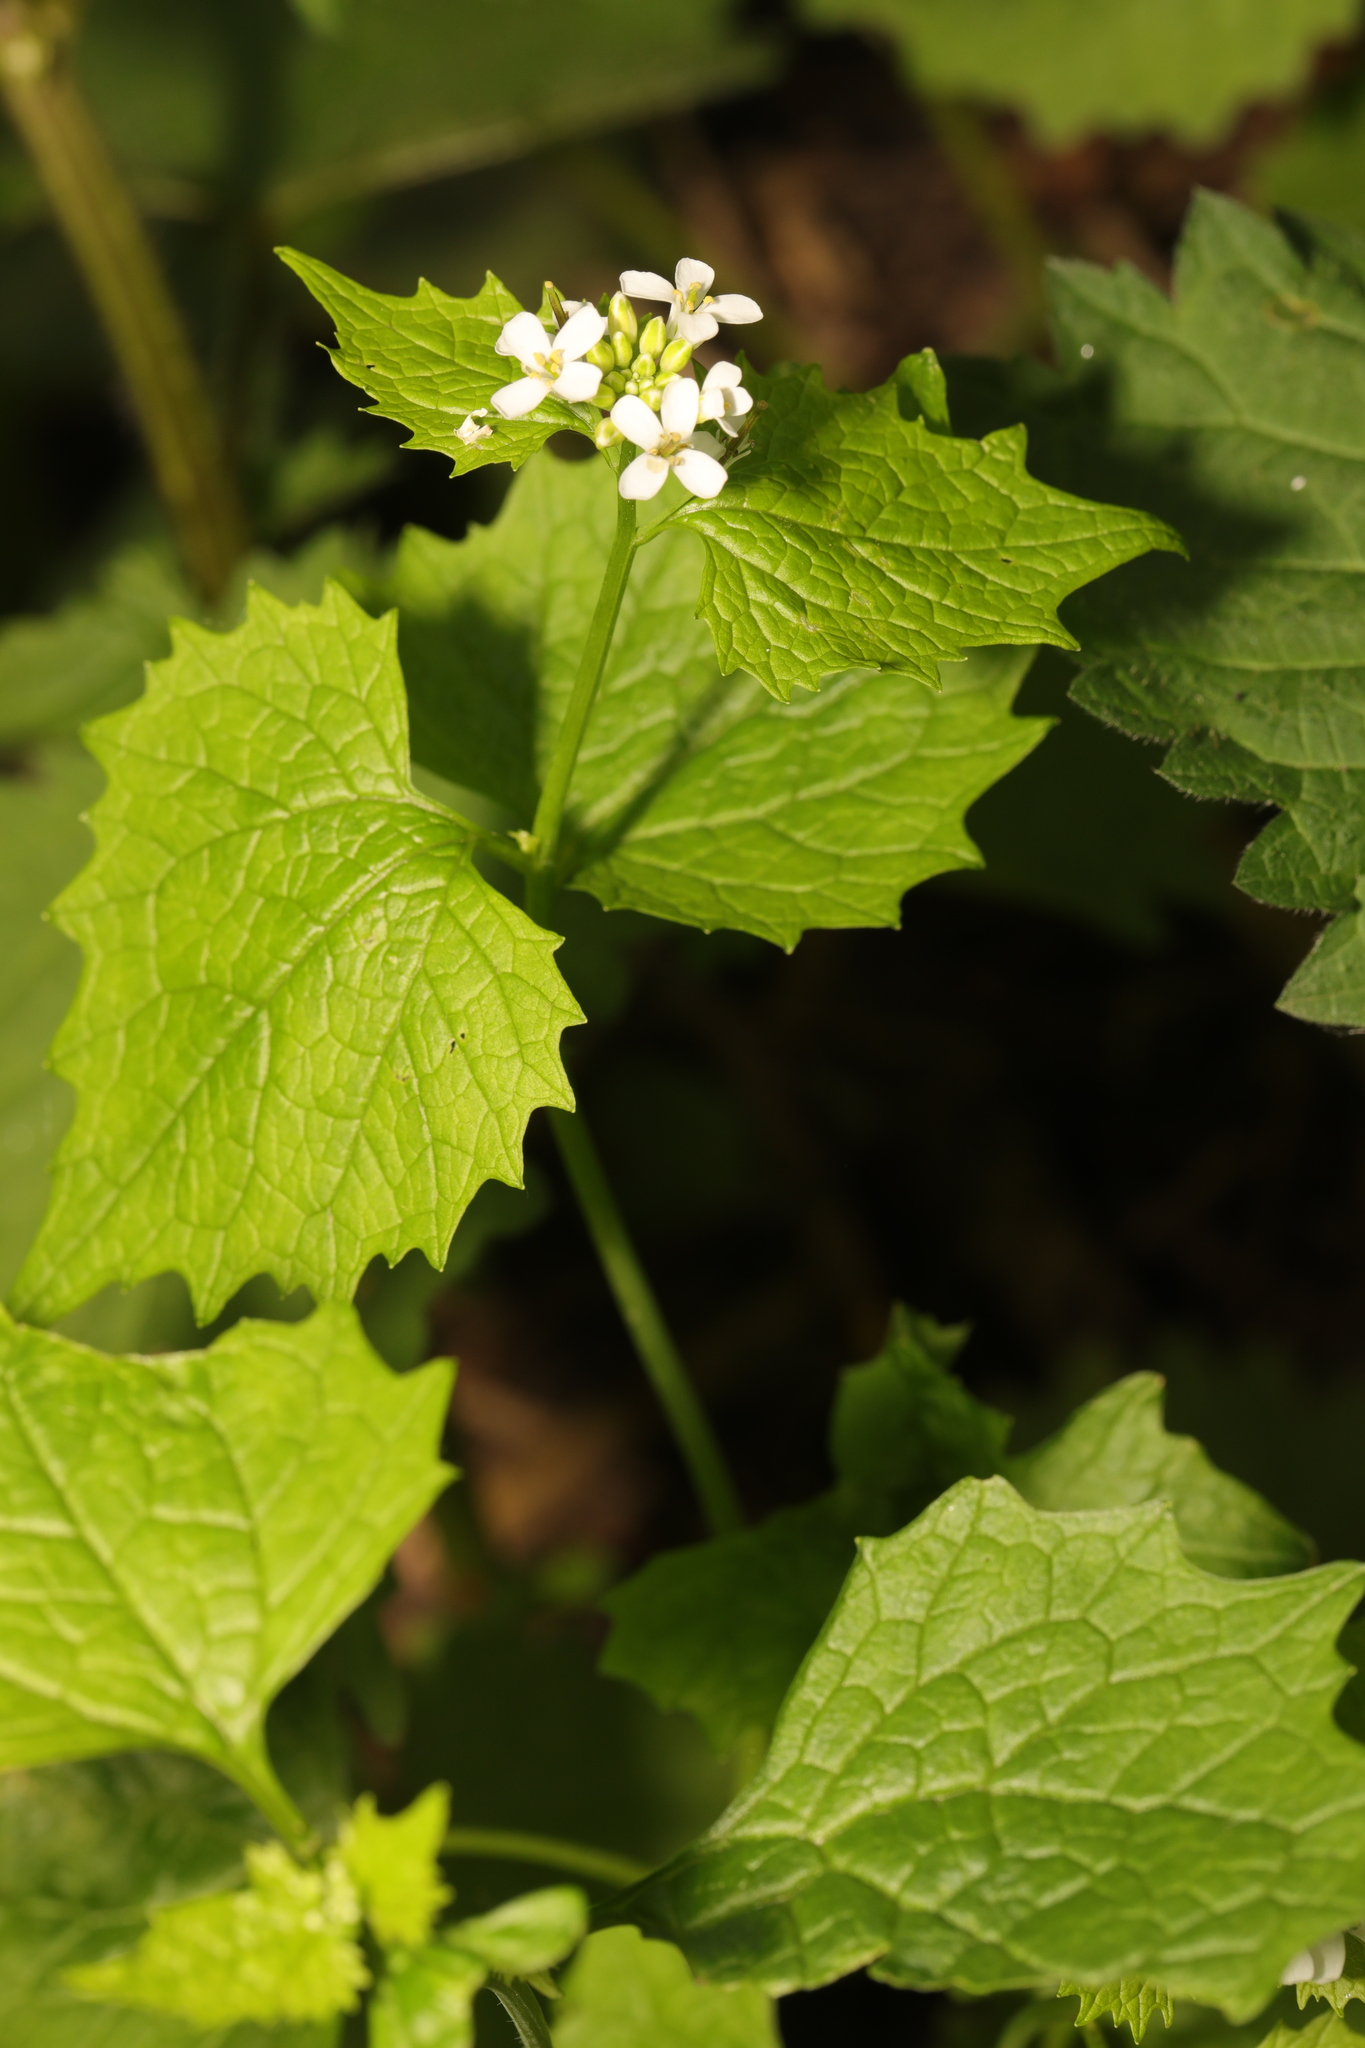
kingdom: Plantae
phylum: Tracheophyta
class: Magnoliopsida
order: Brassicales
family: Brassicaceae
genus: Alliaria
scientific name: Alliaria petiolata
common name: Garlic mustard
